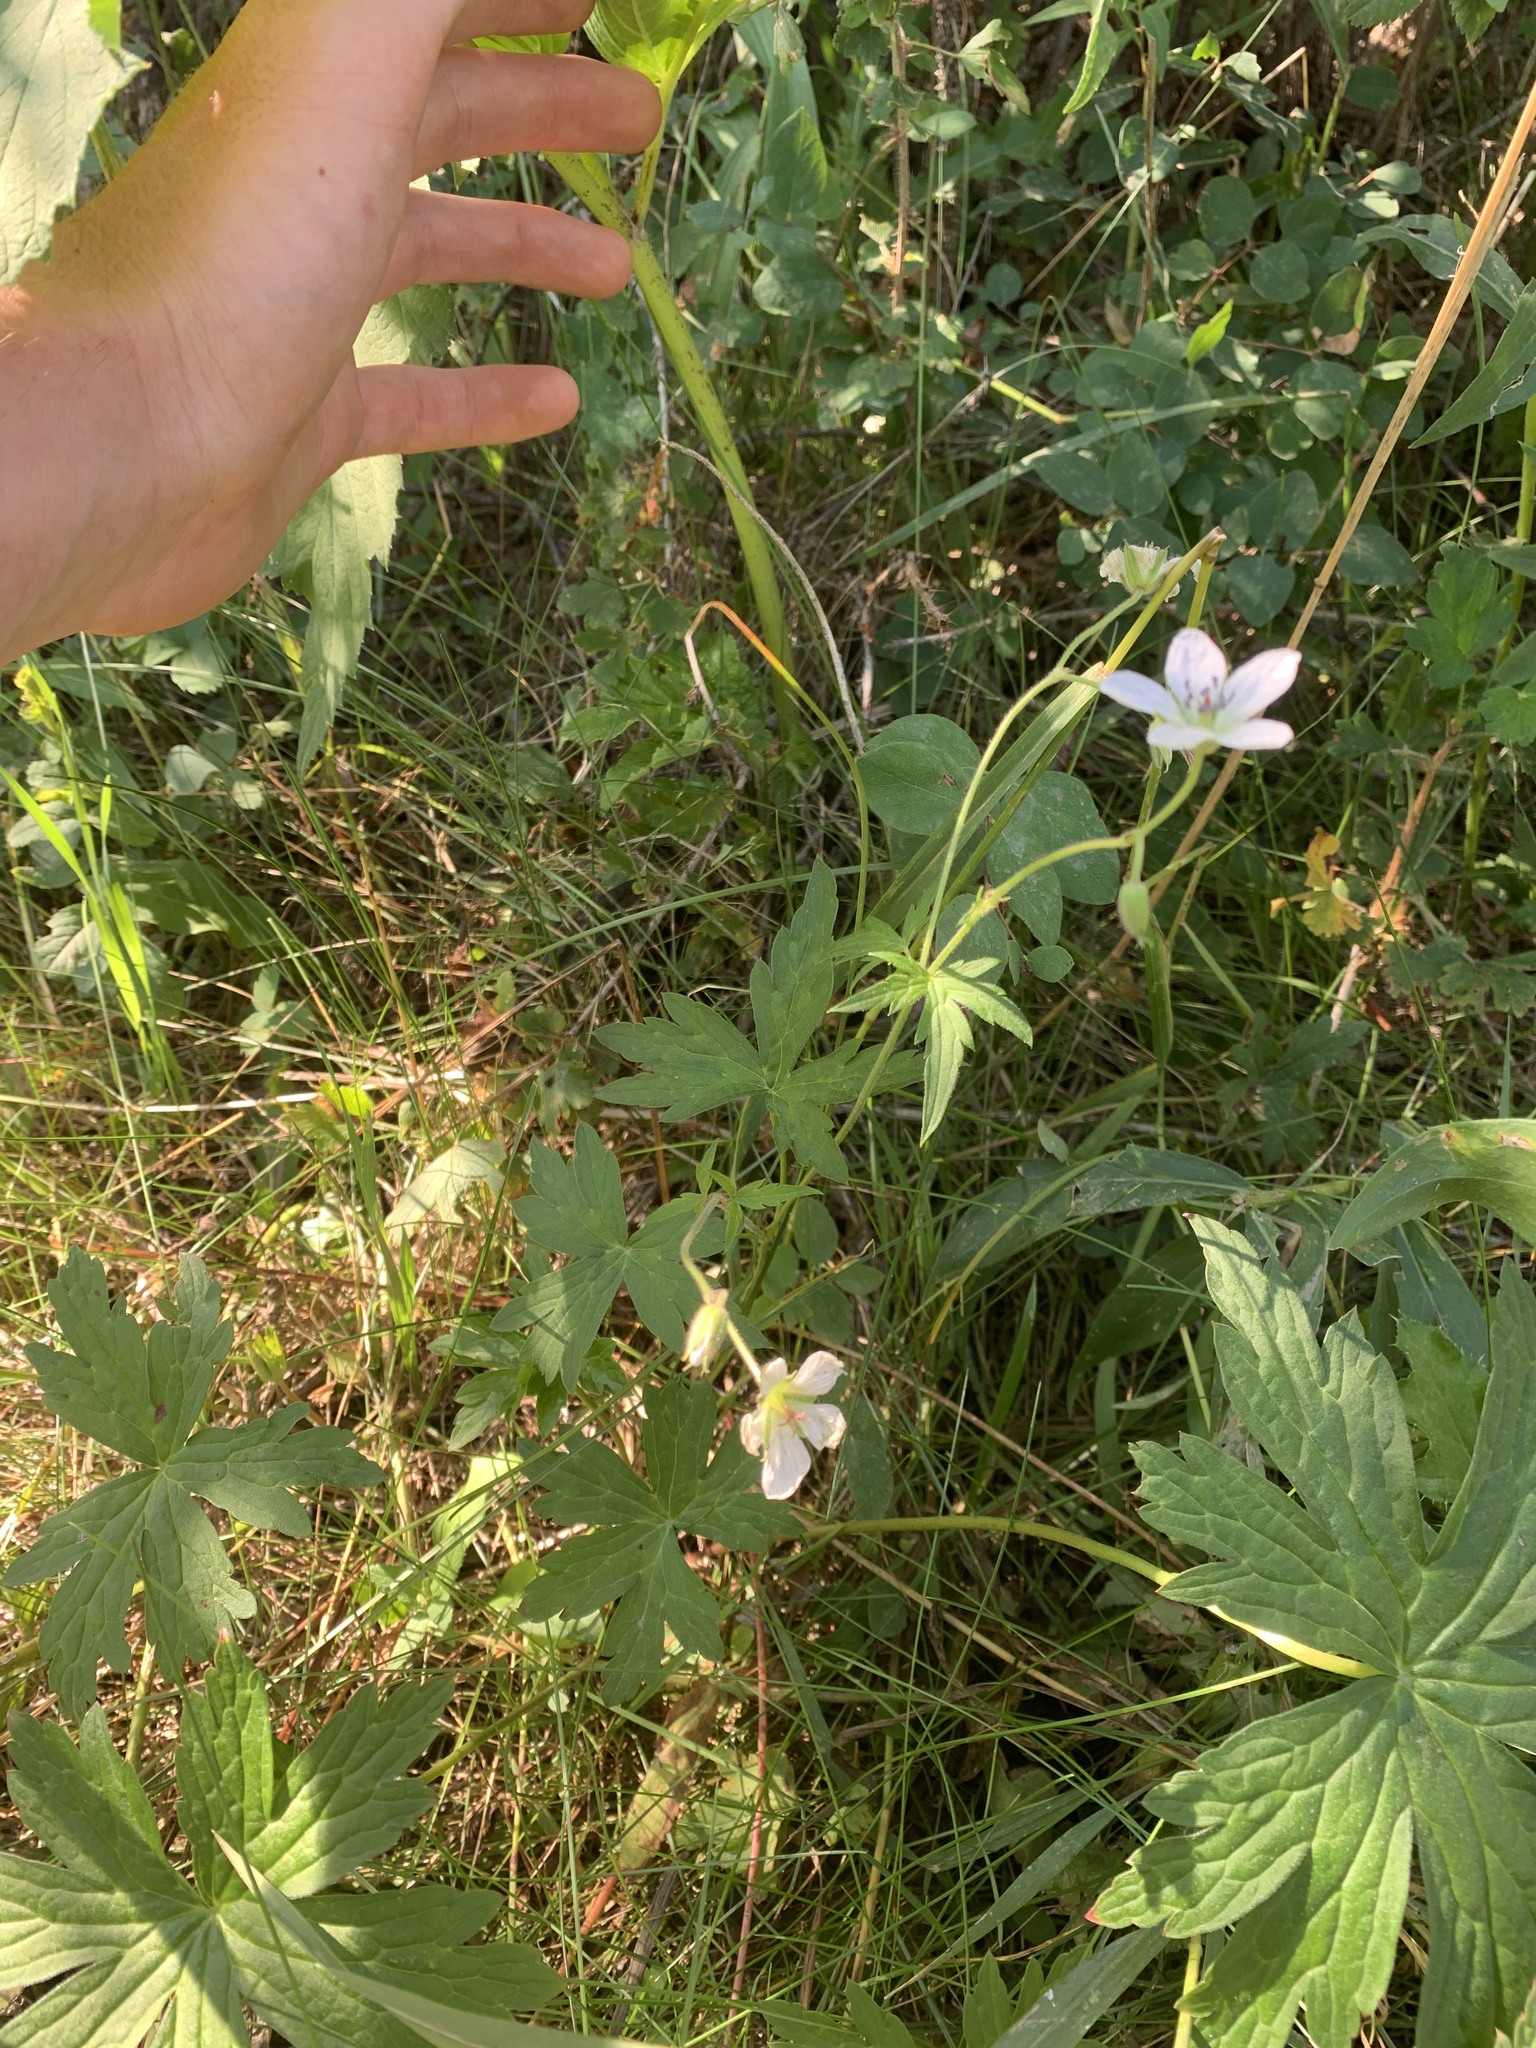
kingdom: Plantae
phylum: Tracheophyta
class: Magnoliopsida
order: Geraniales
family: Geraniaceae
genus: Geranium
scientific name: Geranium richardsonii
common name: Richardson's crane's-bill
